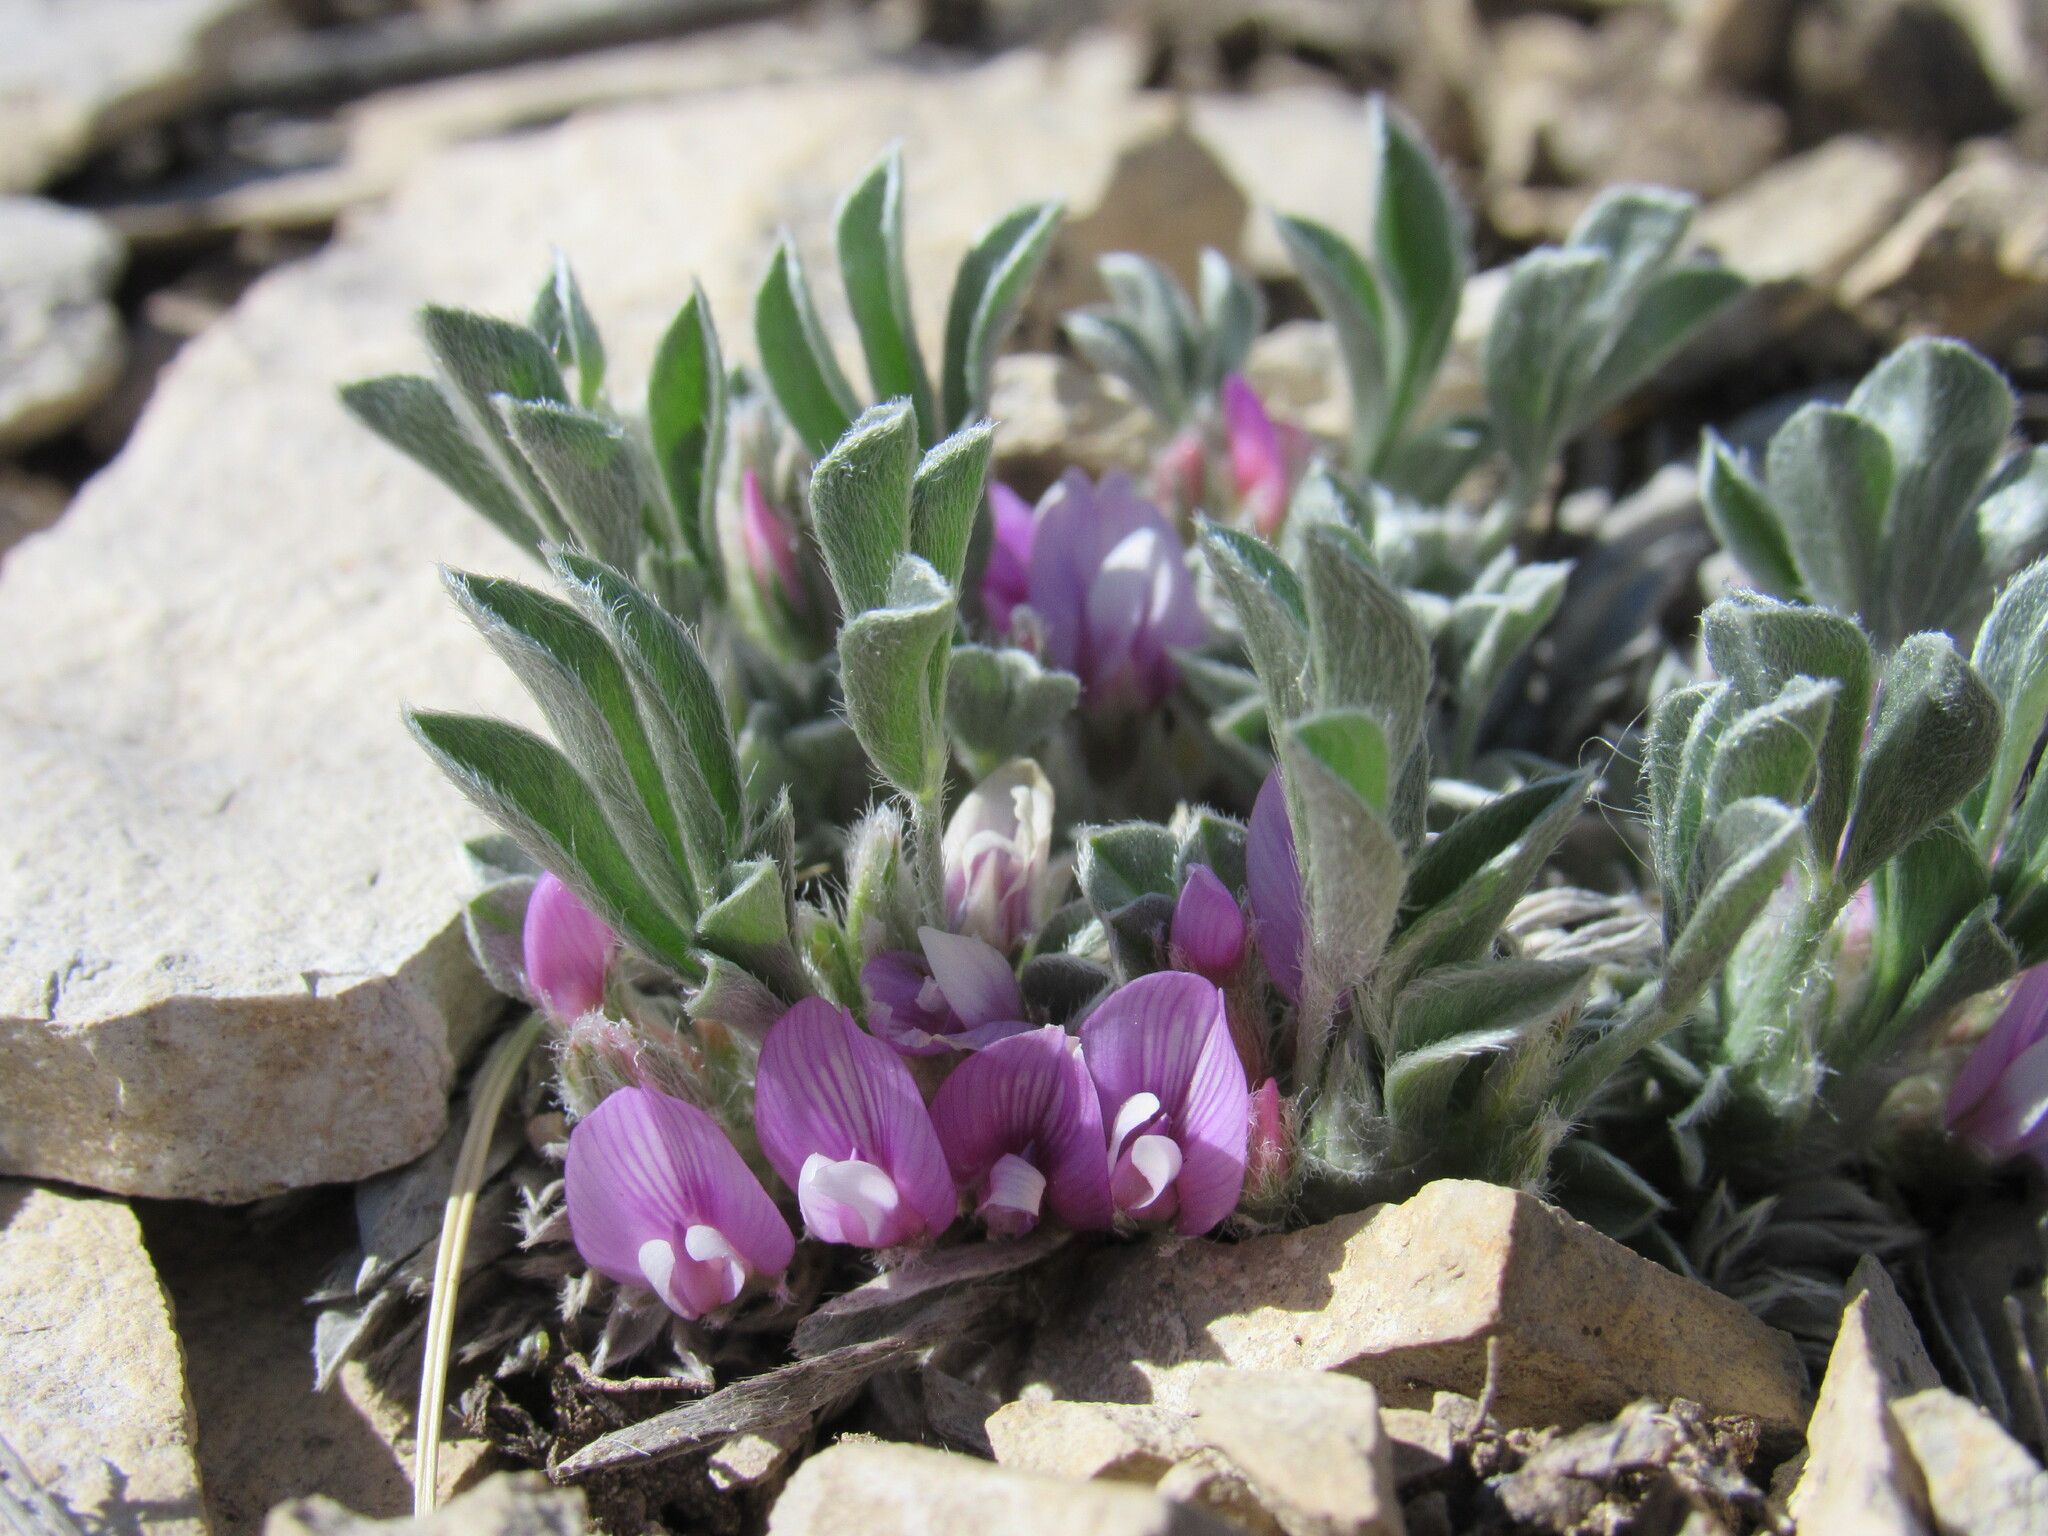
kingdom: Plantae
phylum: Tracheophyta
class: Magnoliopsida
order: Fabales
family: Fabaceae
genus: Astragalus
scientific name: Astragalus tridactylicus
